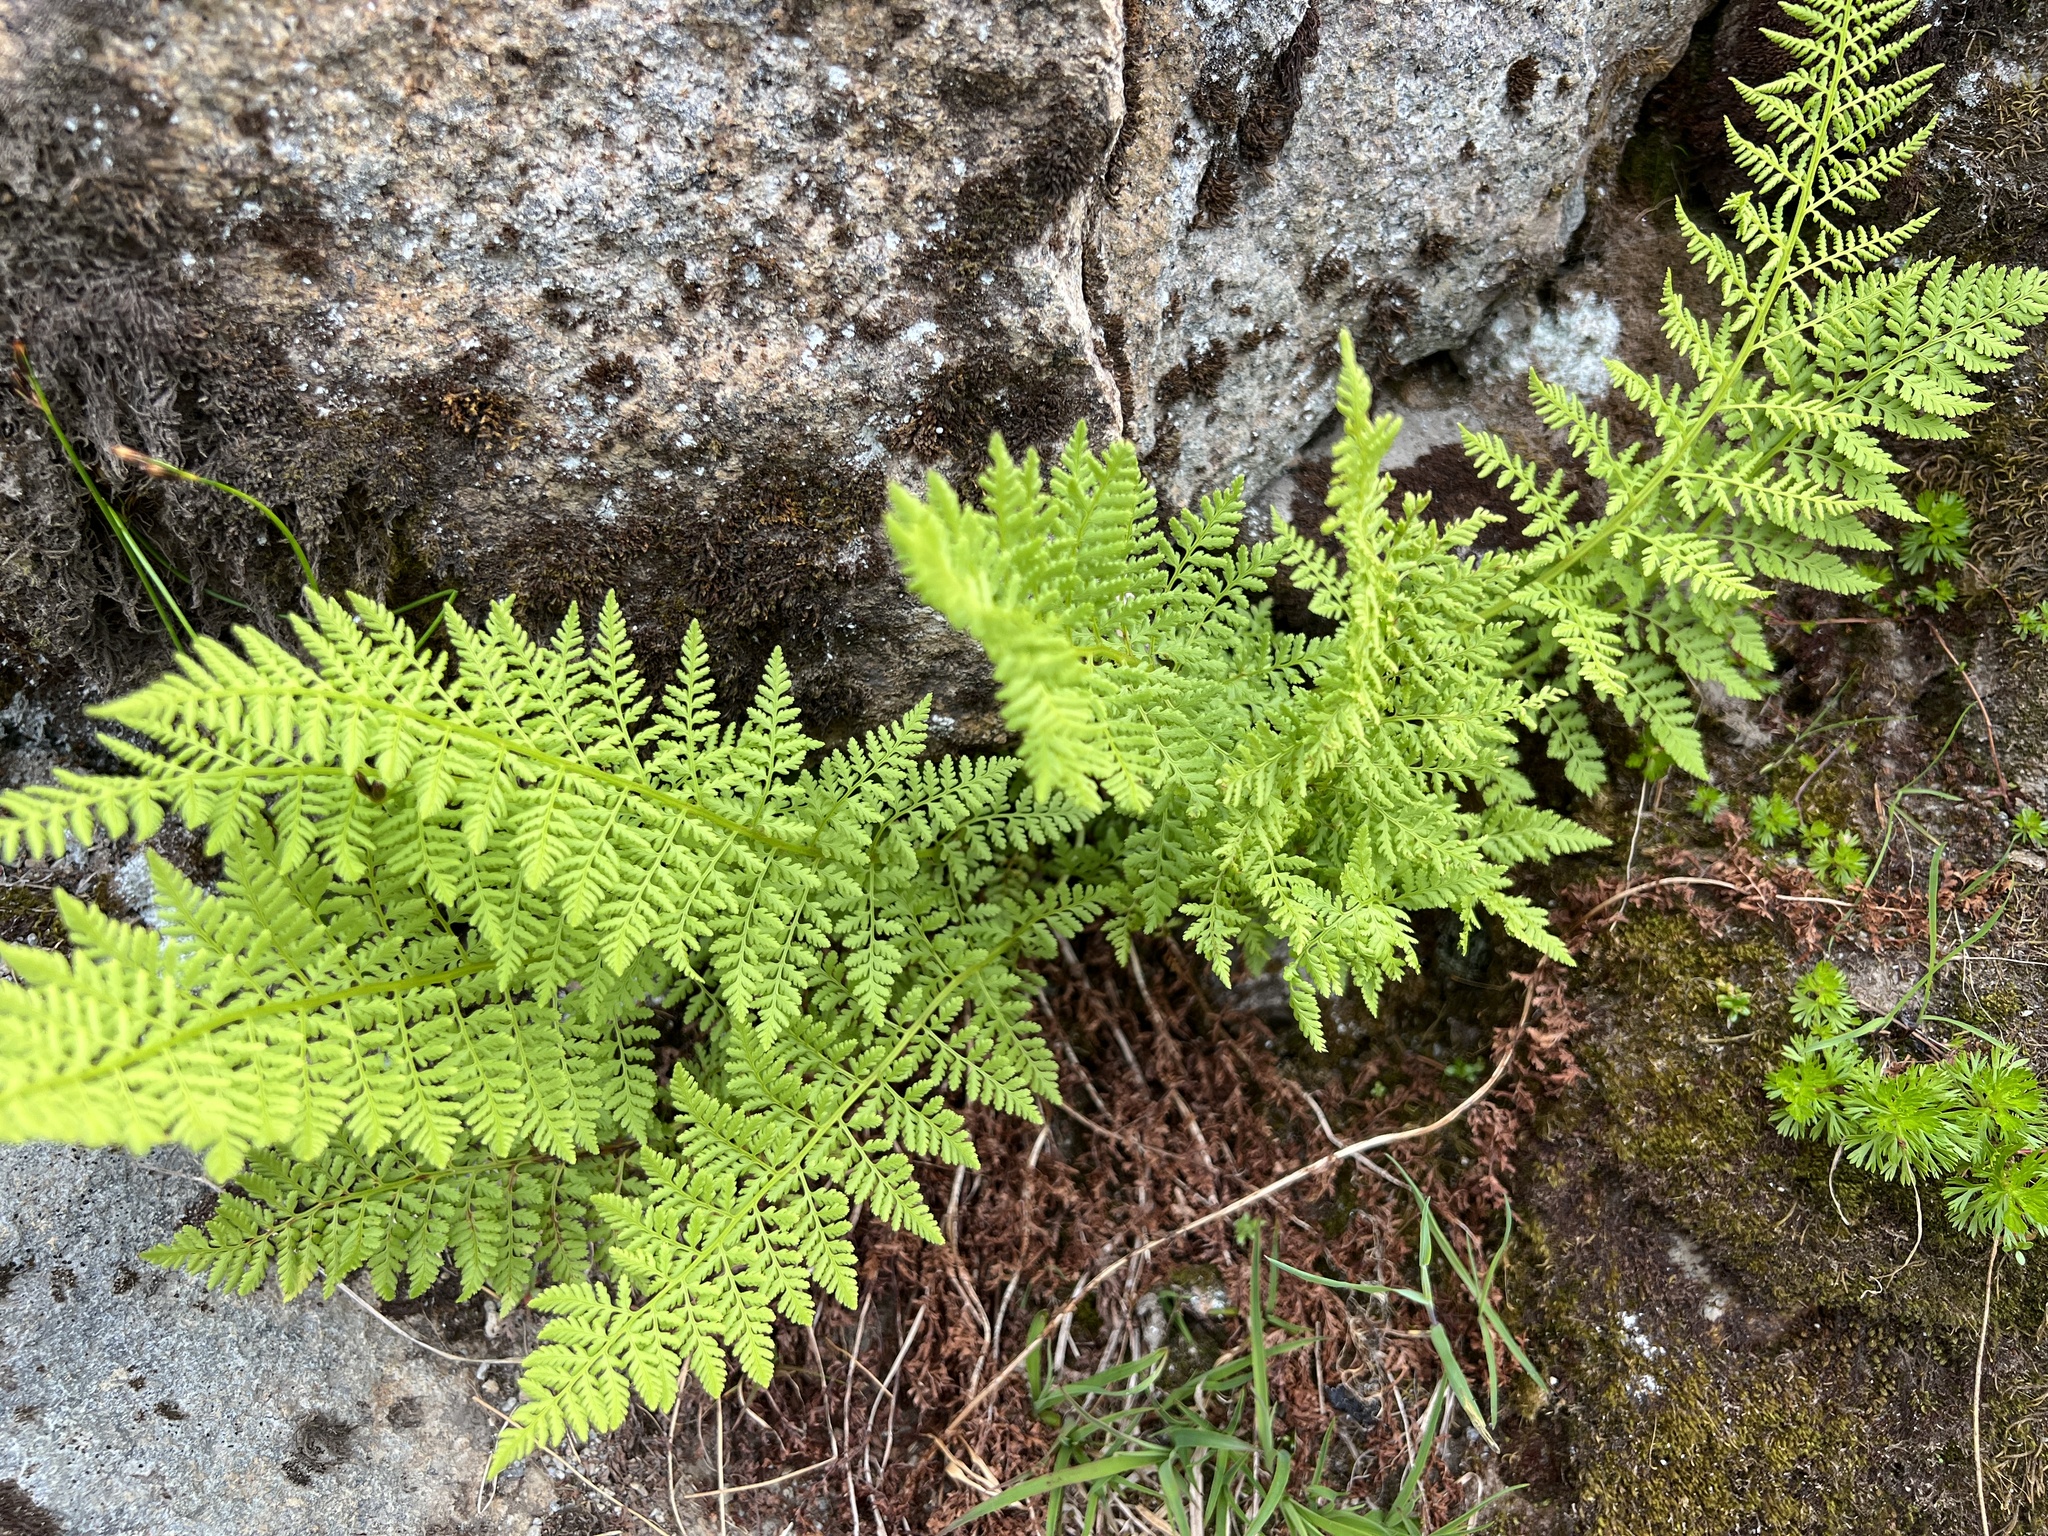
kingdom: Plantae
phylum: Tracheophyta
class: Polypodiopsida
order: Polypodiales
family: Athyriaceae
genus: Athyrium
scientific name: Athyrium americanum
